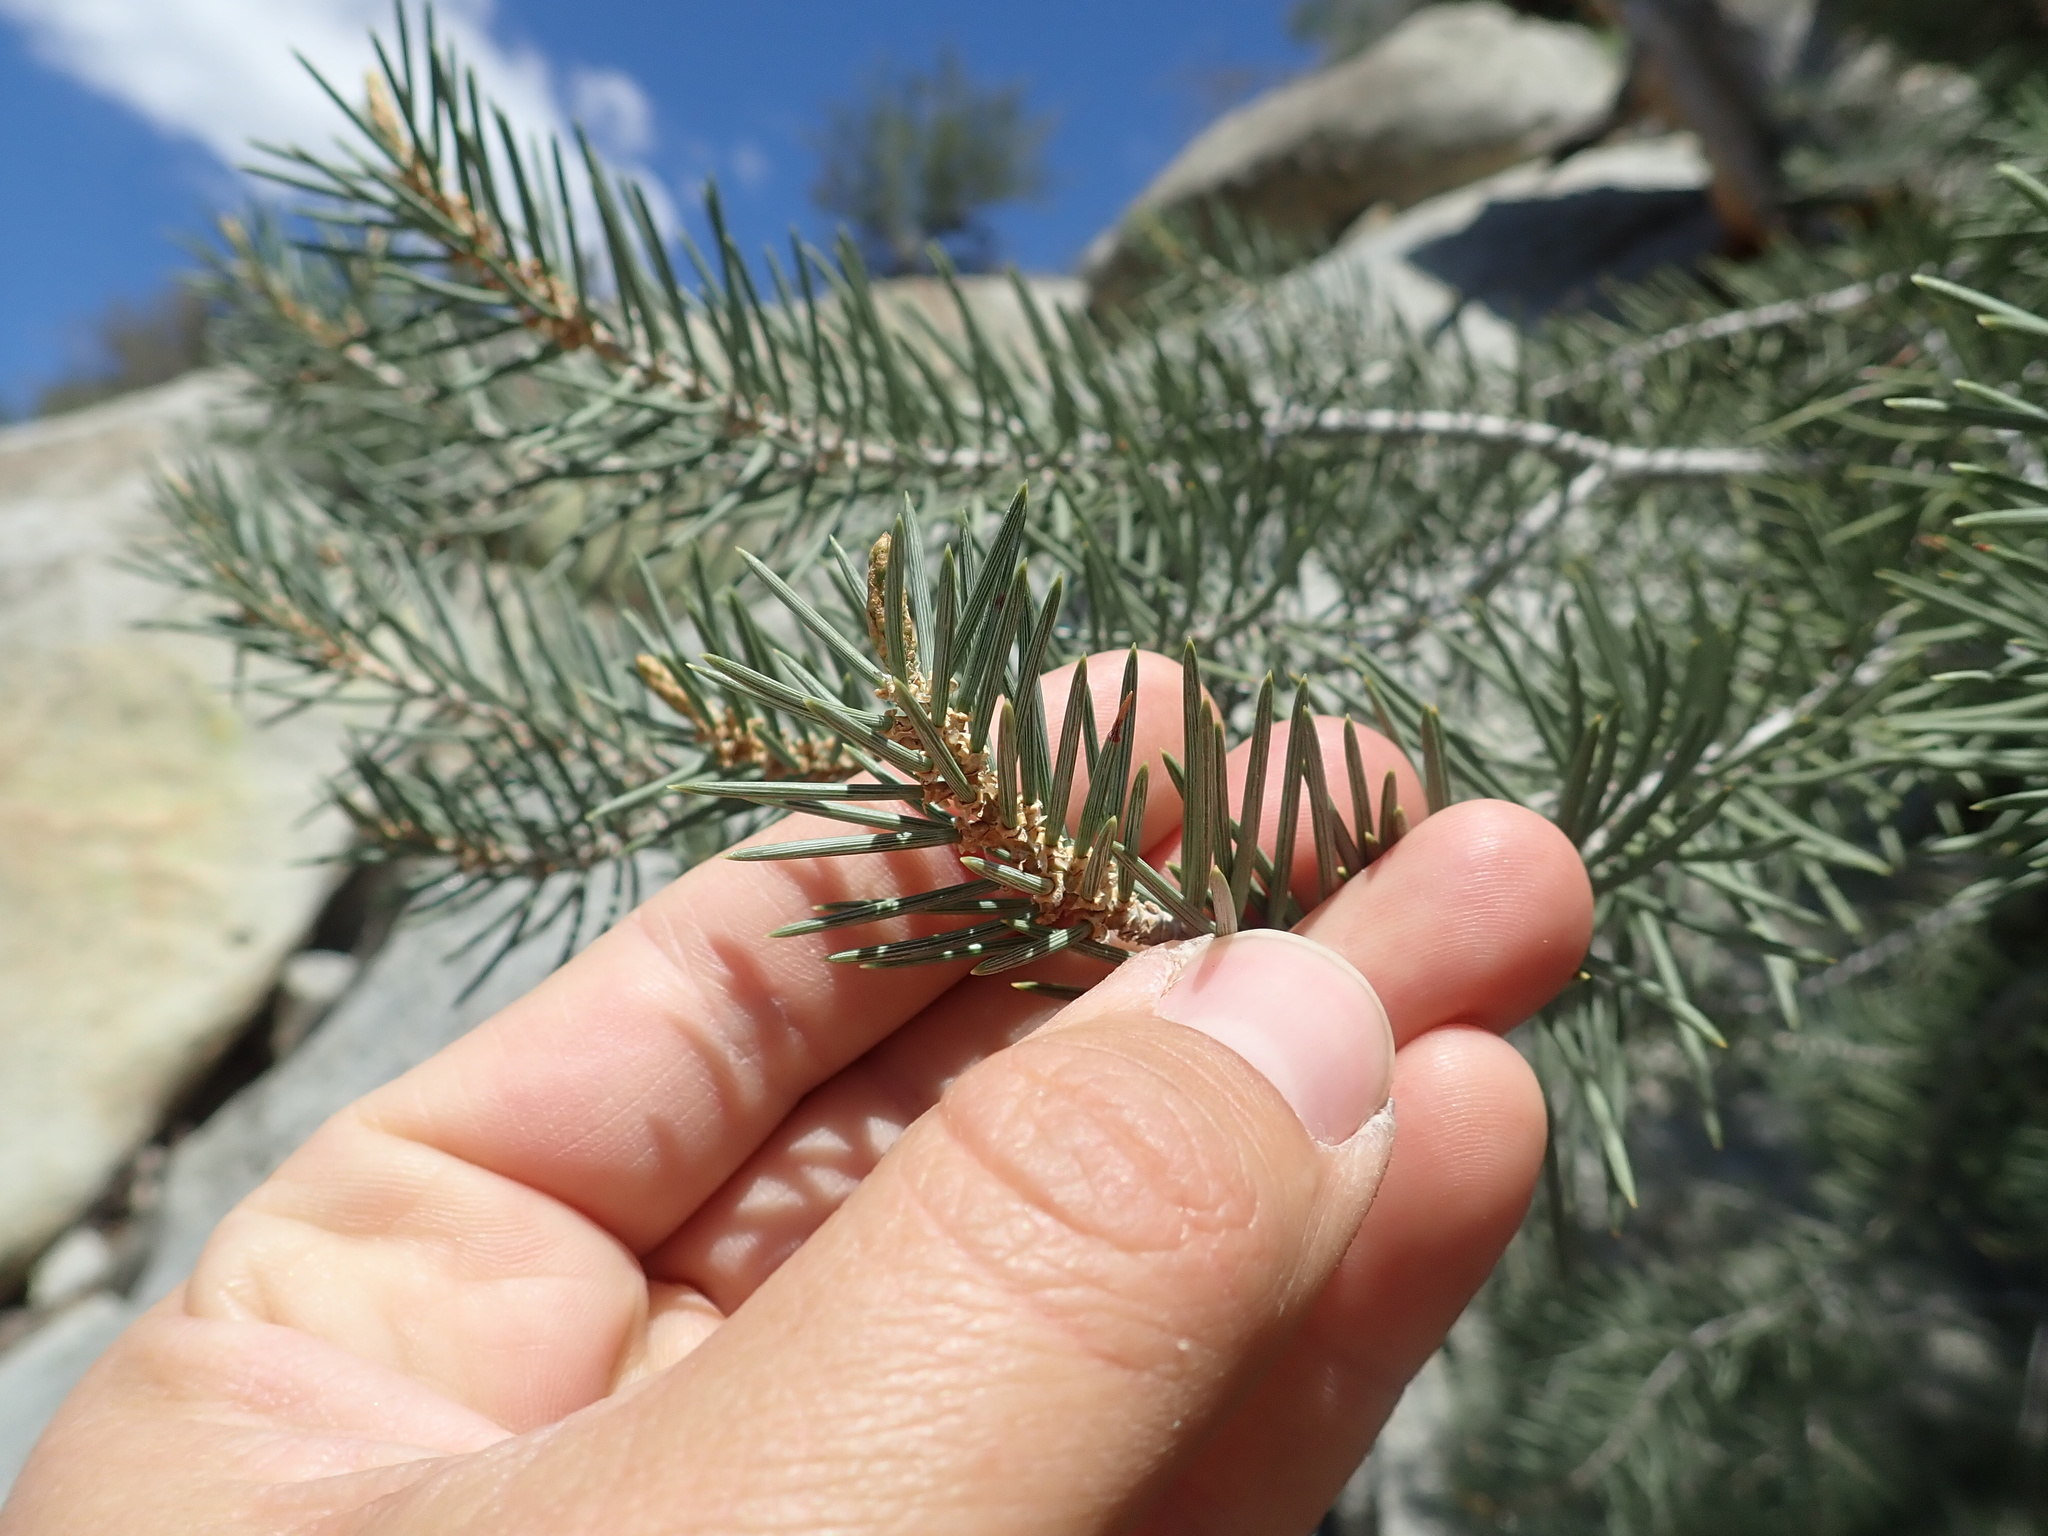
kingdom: Plantae
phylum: Tracheophyta
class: Pinopsida
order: Pinales
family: Pinaceae
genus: Pinus
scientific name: Pinus monophylla
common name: One-leaved nut pine
